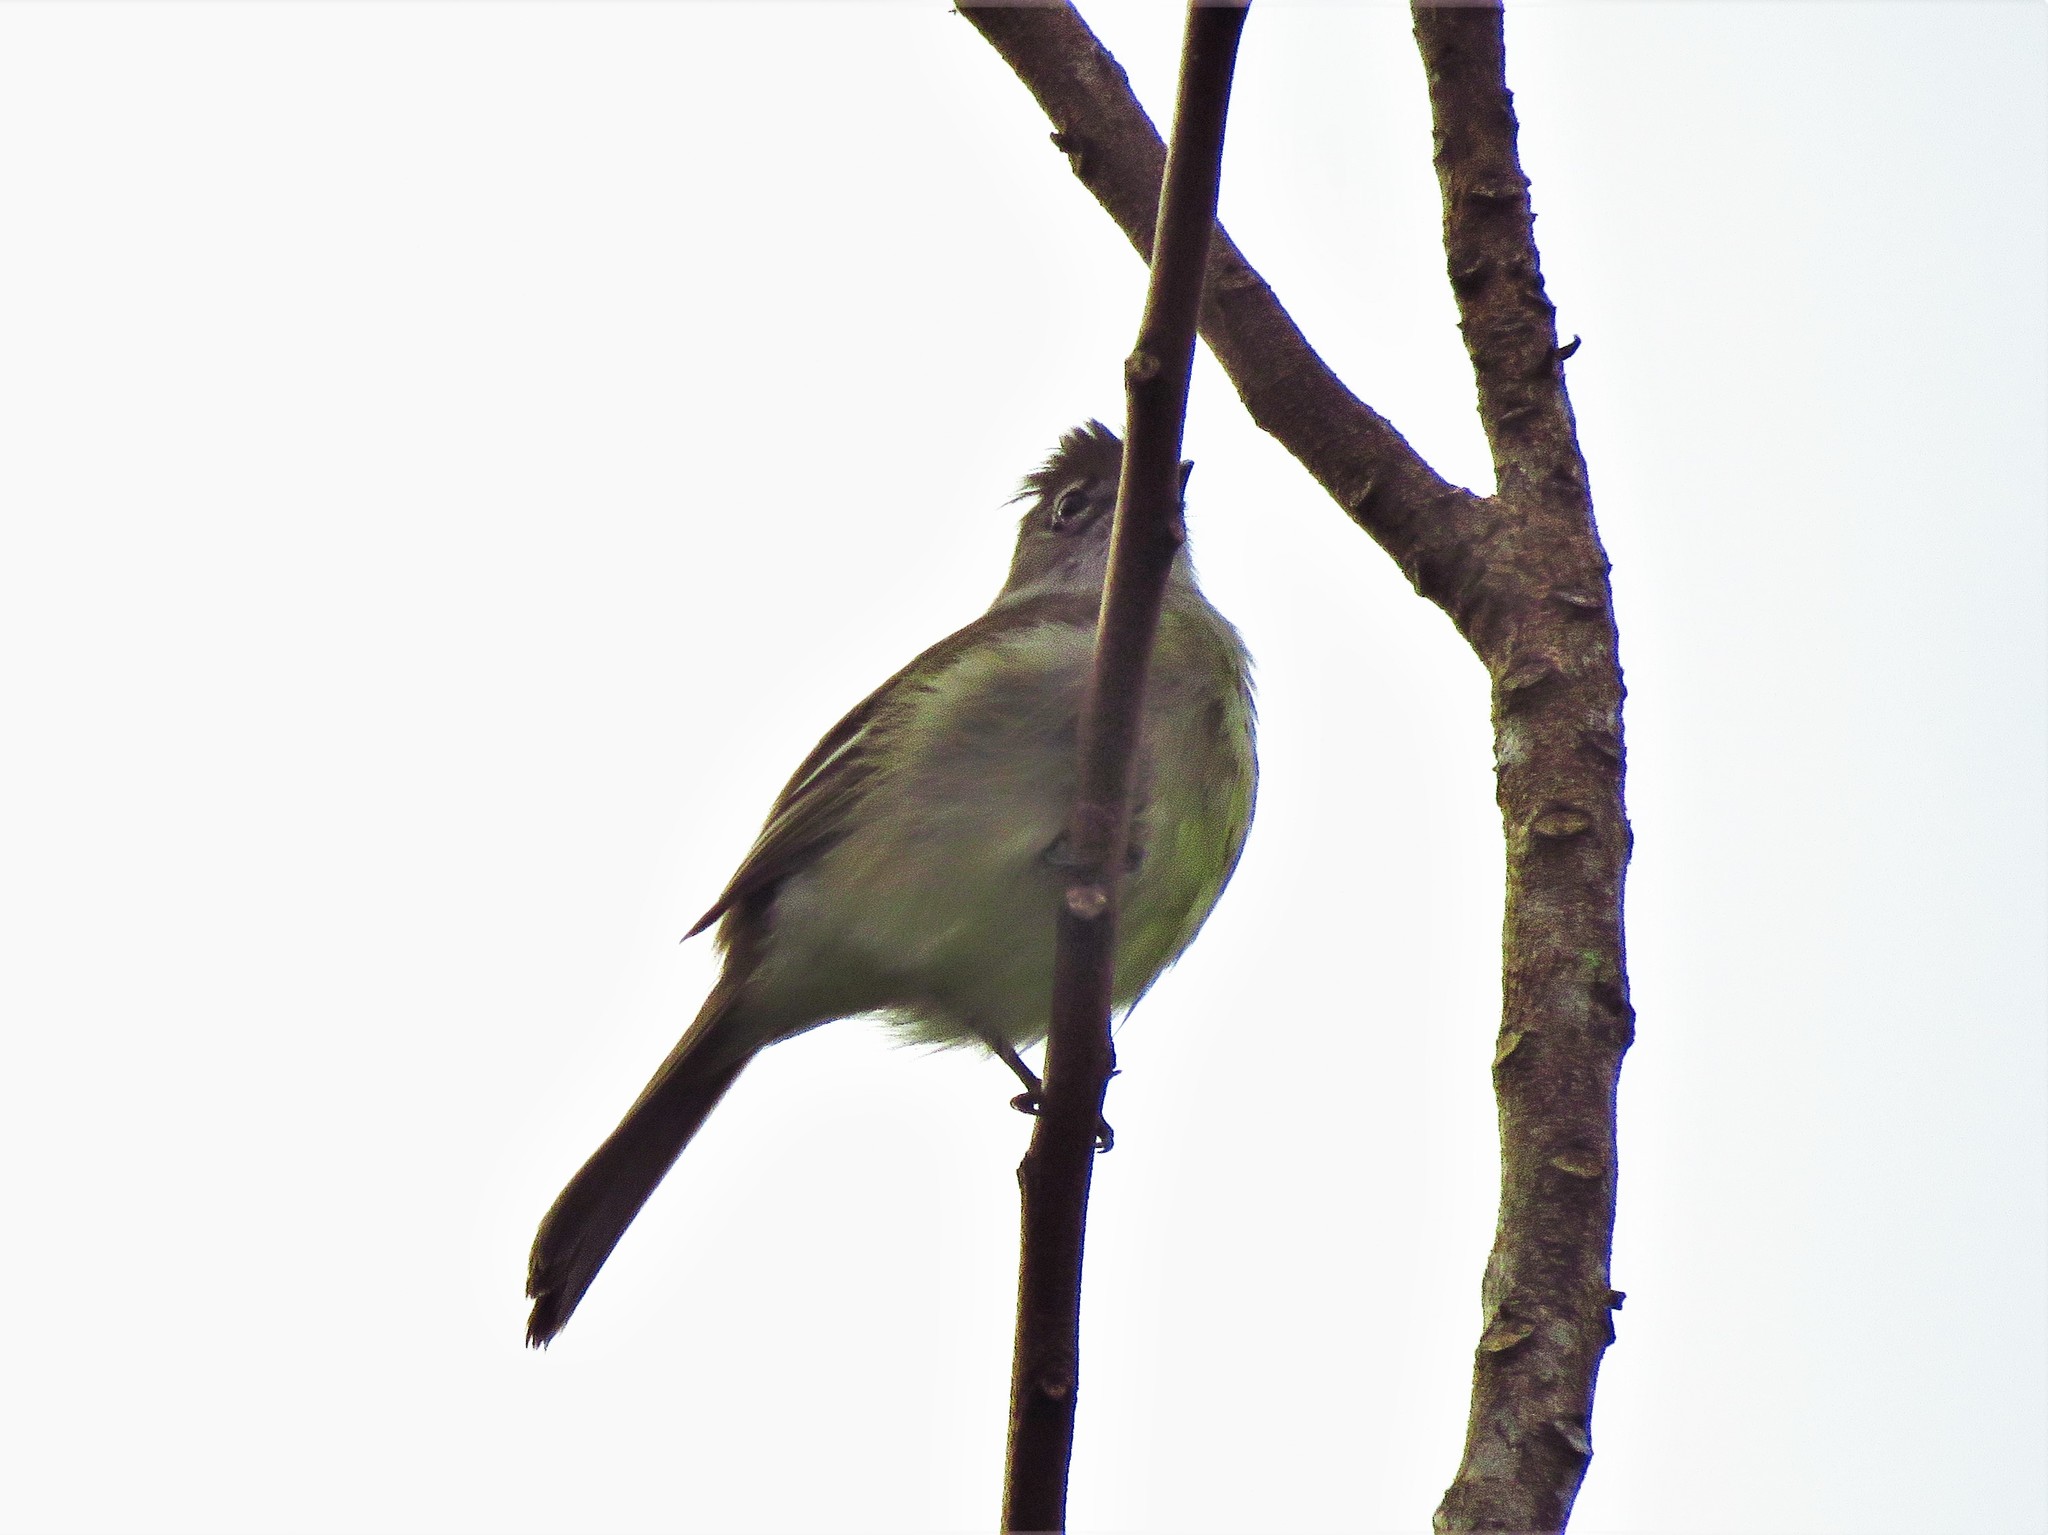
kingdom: Animalia
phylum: Chordata
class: Aves
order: Passeriformes
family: Tyrannidae
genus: Elaenia
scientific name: Elaenia flavogaster
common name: Yellow-bellied elaenia
